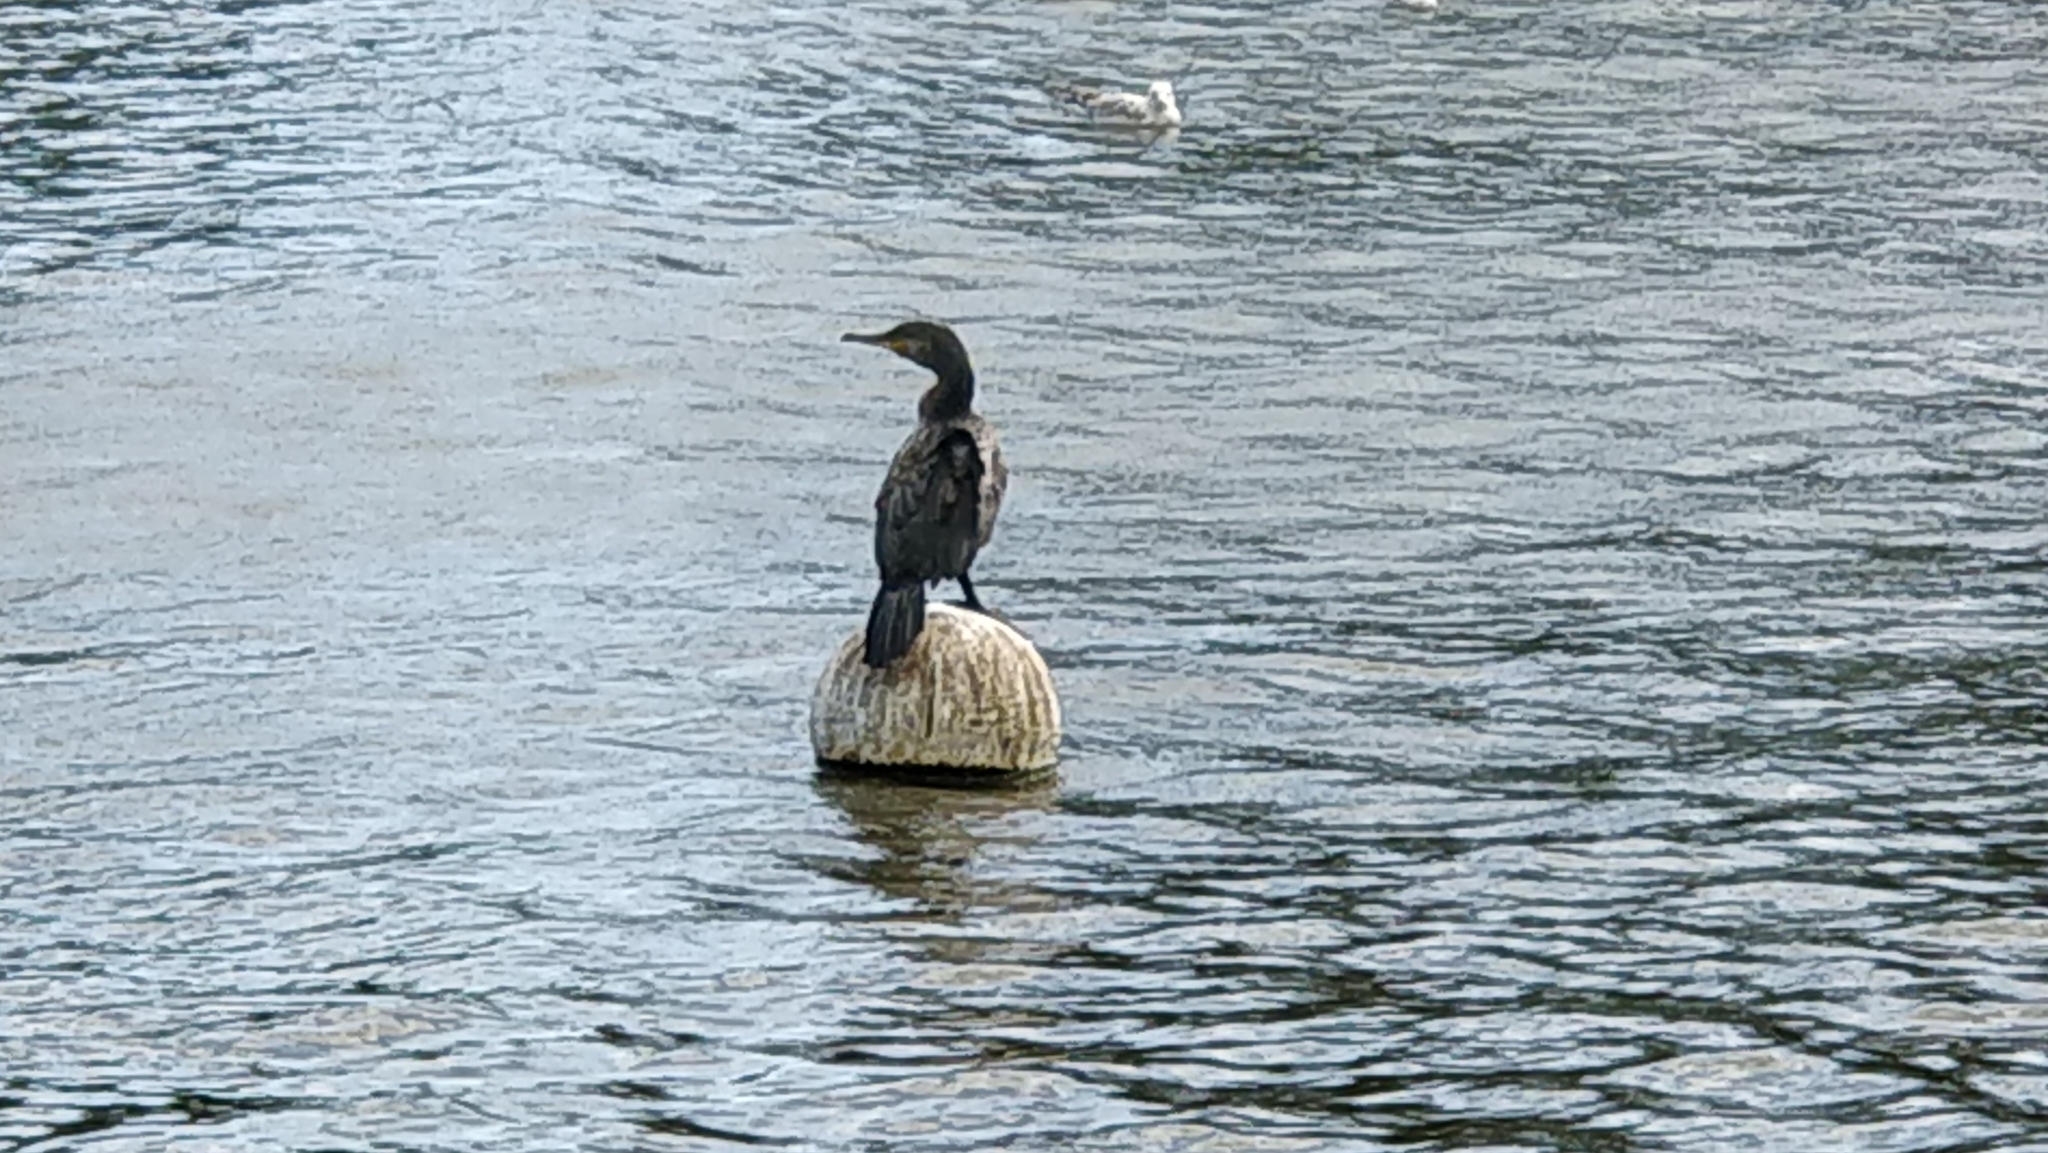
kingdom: Animalia
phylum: Chordata
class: Aves
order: Suliformes
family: Phalacrocoracidae
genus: Phalacrocorax
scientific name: Phalacrocorax carbo
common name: Great cormorant
